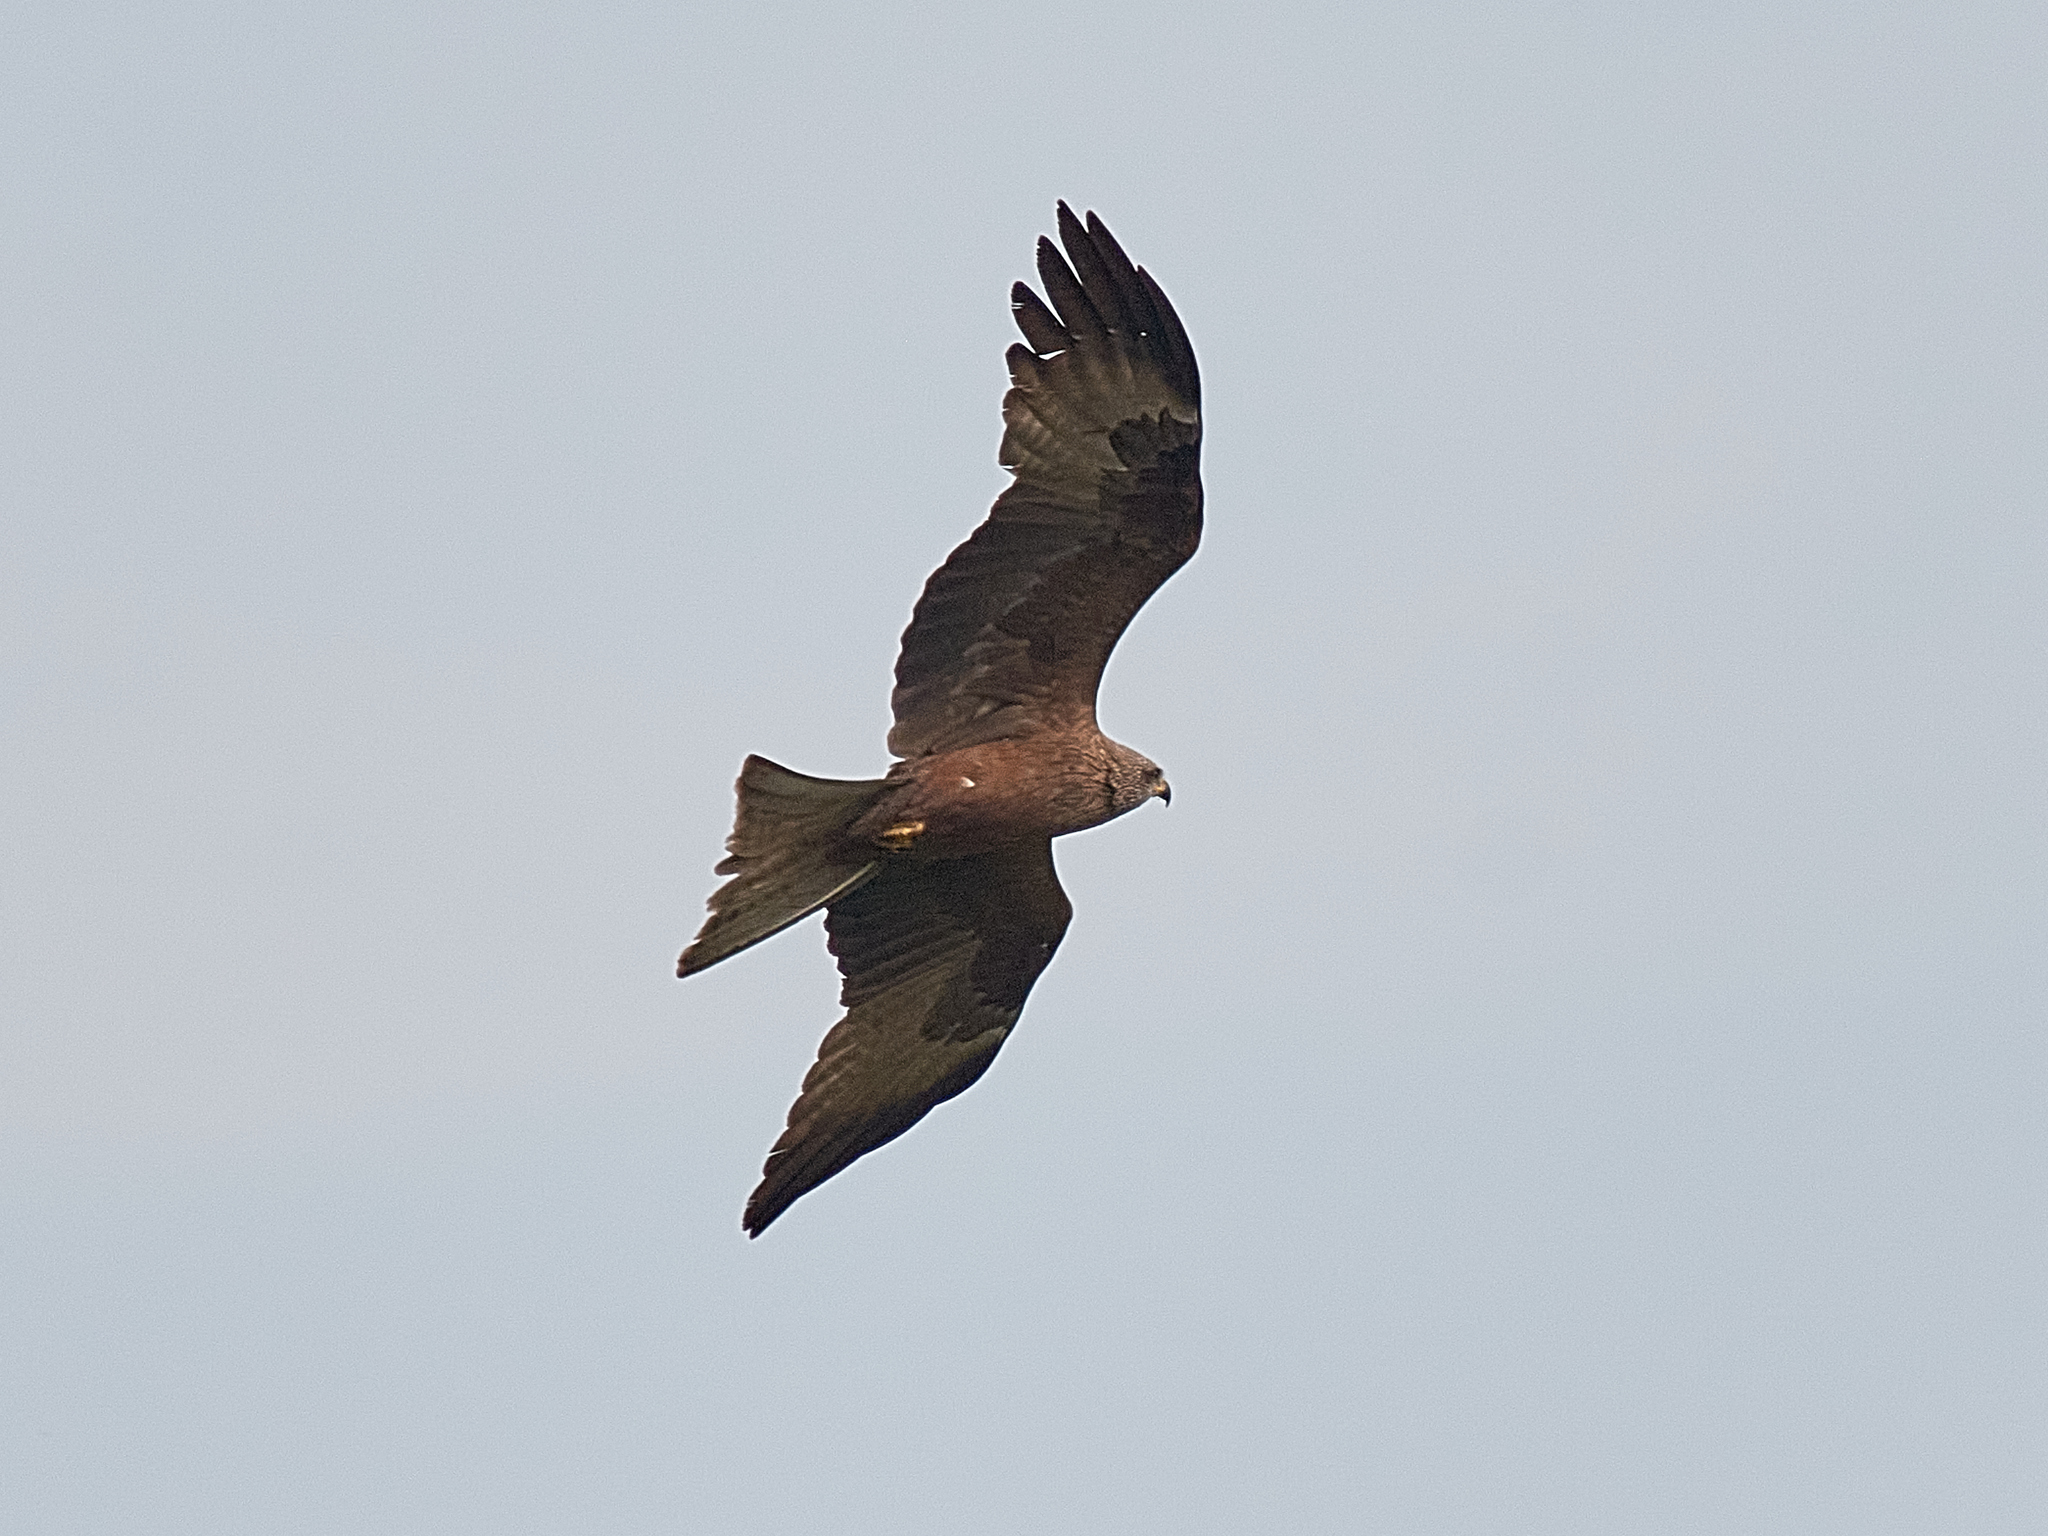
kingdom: Animalia
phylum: Chordata
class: Aves
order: Accipitriformes
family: Accipitridae
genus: Milvus
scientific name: Milvus migrans
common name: Black kite
